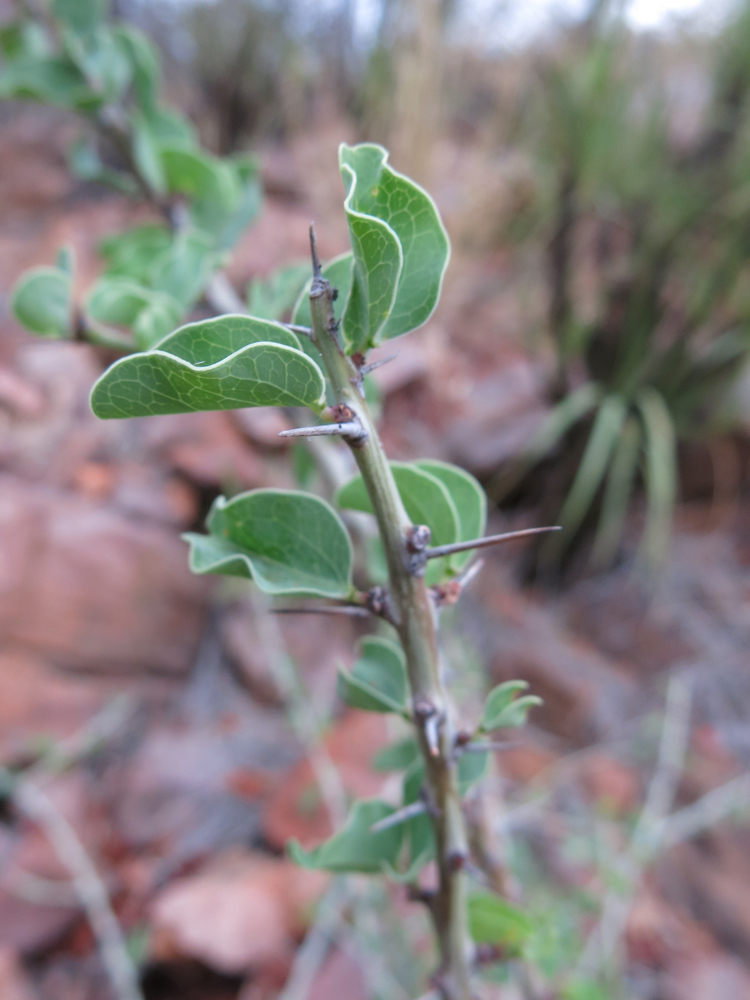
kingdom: Plantae
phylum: Tracheophyta
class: Magnoliopsida
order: Malpighiales
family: Passifloraceae
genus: Adenia
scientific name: Adenia spinosa
